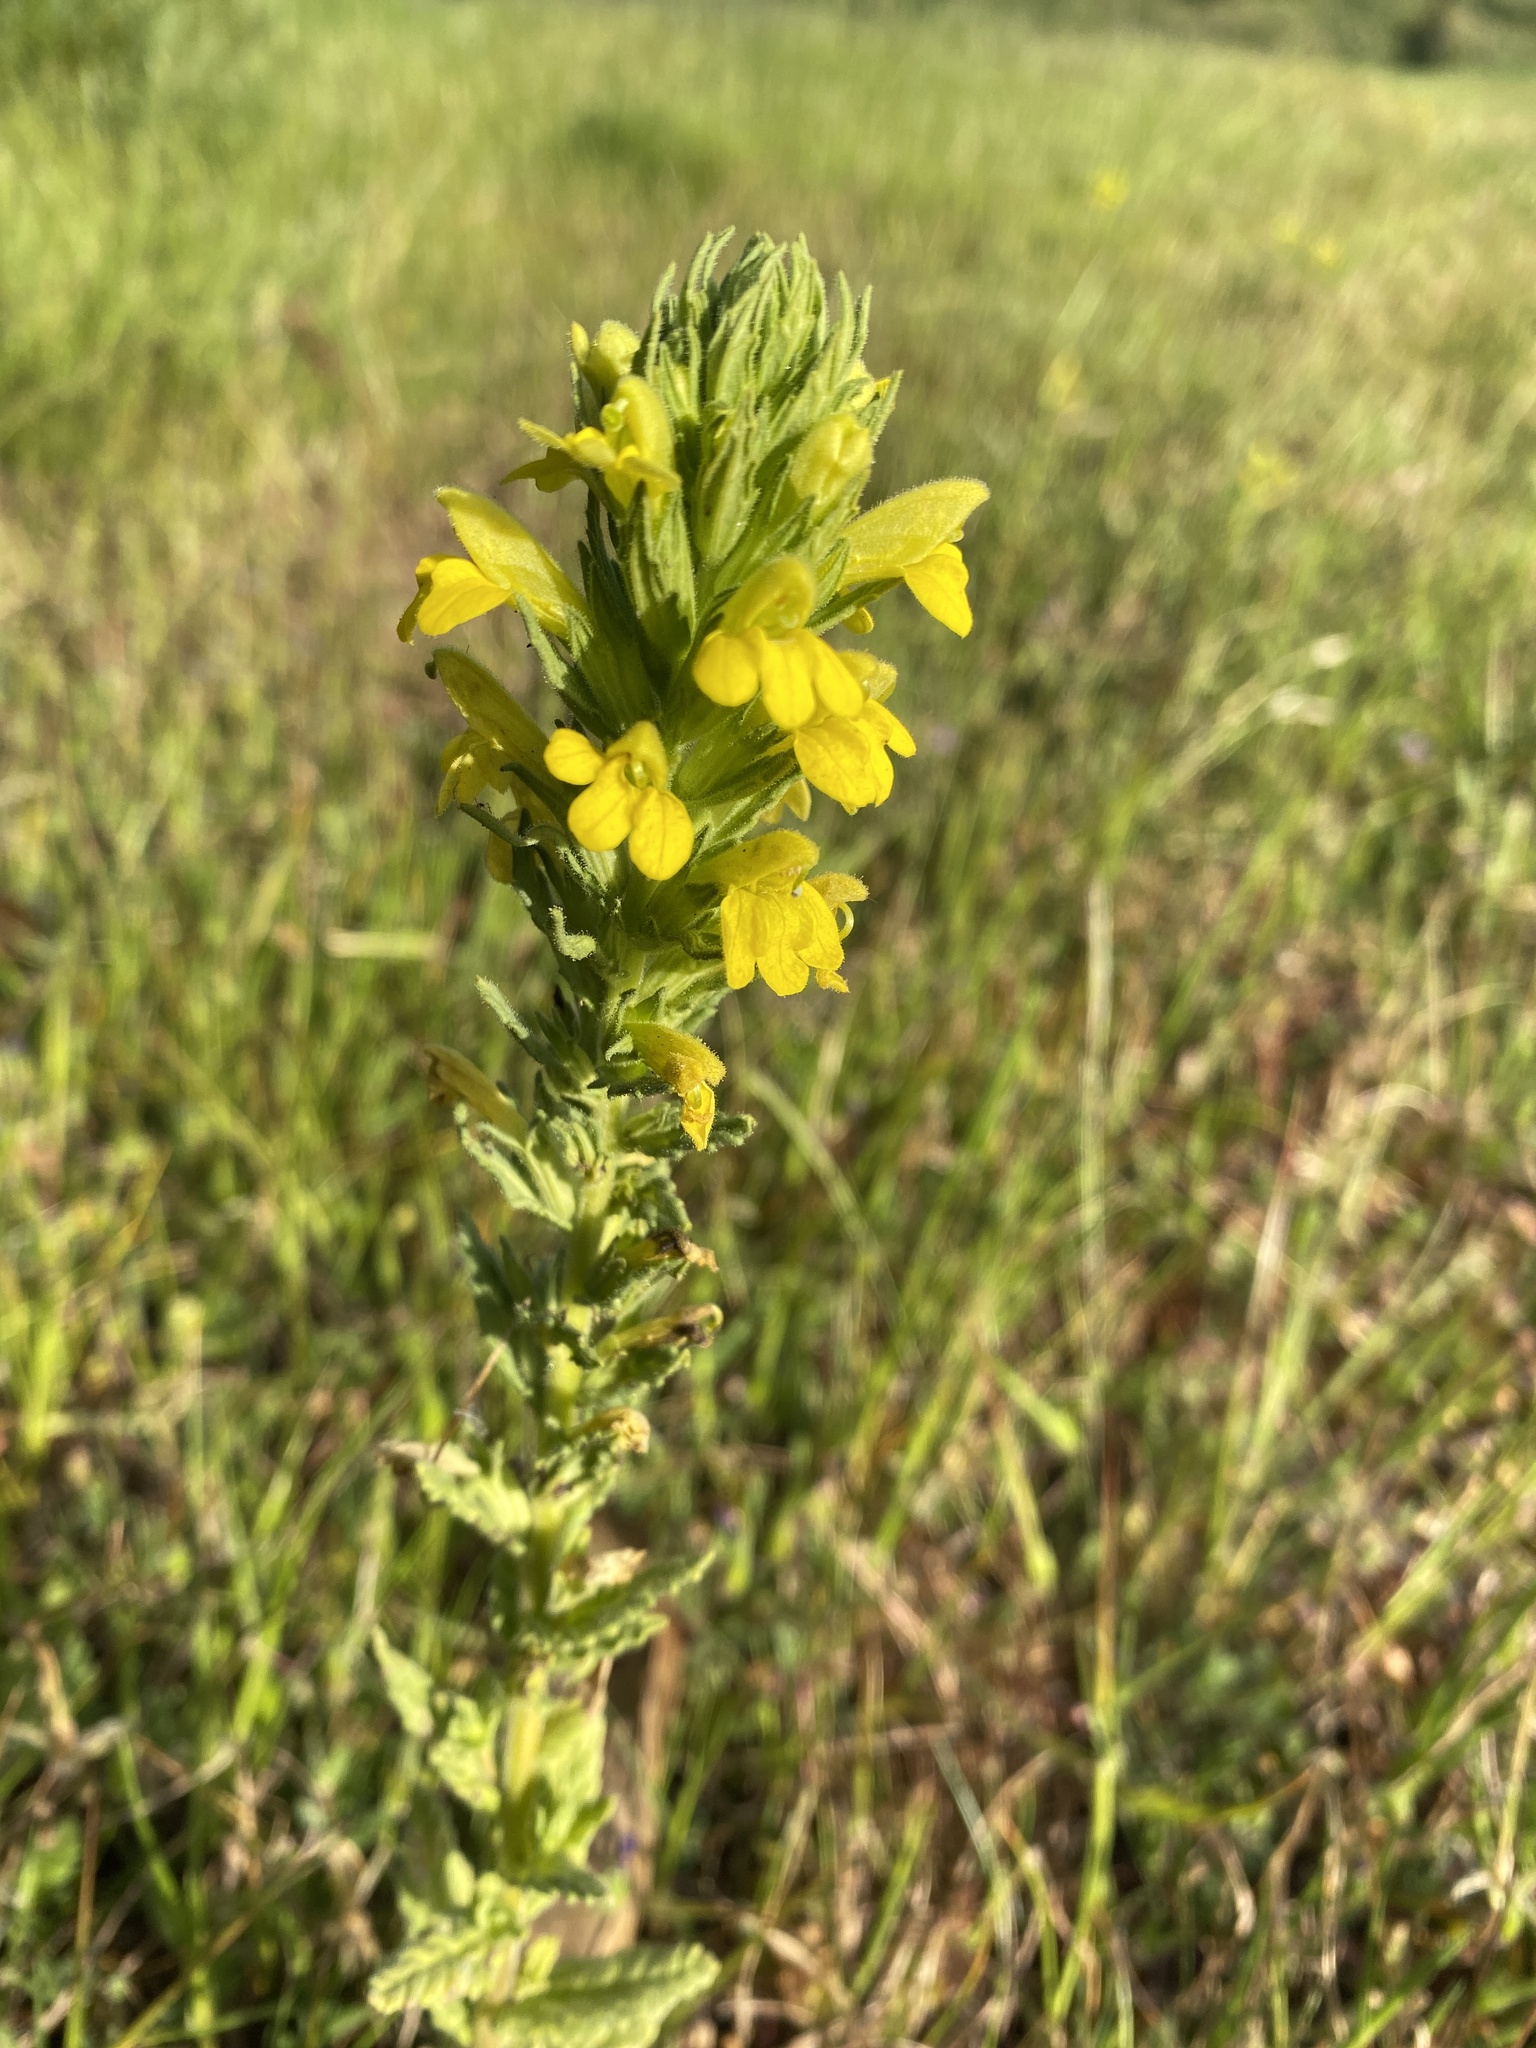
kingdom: Plantae
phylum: Tracheophyta
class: Magnoliopsida
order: Lamiales
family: Orobanchaceae
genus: Bellardia
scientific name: Bellardia viscosa
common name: Sticky parentucellia
